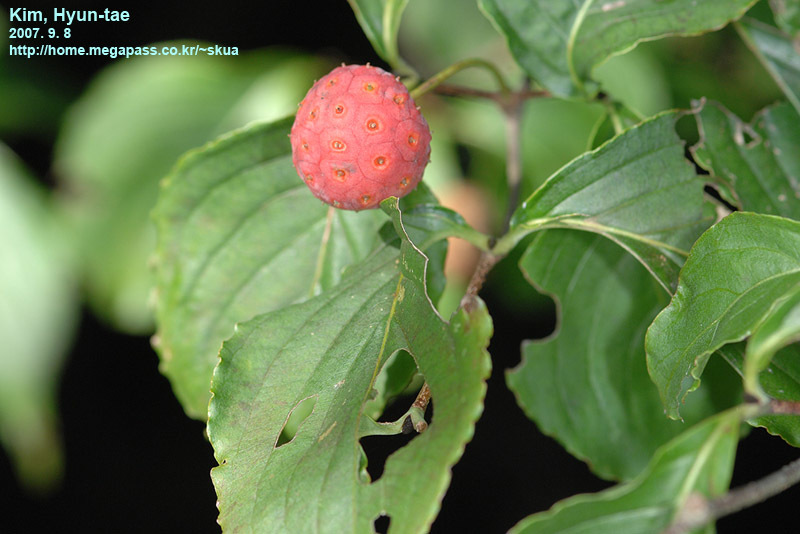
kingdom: Plantae
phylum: Tracheophyta
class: Magnoliopsida
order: Cornales
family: Cornaceae
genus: Cornus
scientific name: Cornus kousa
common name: Japanese dogwood
